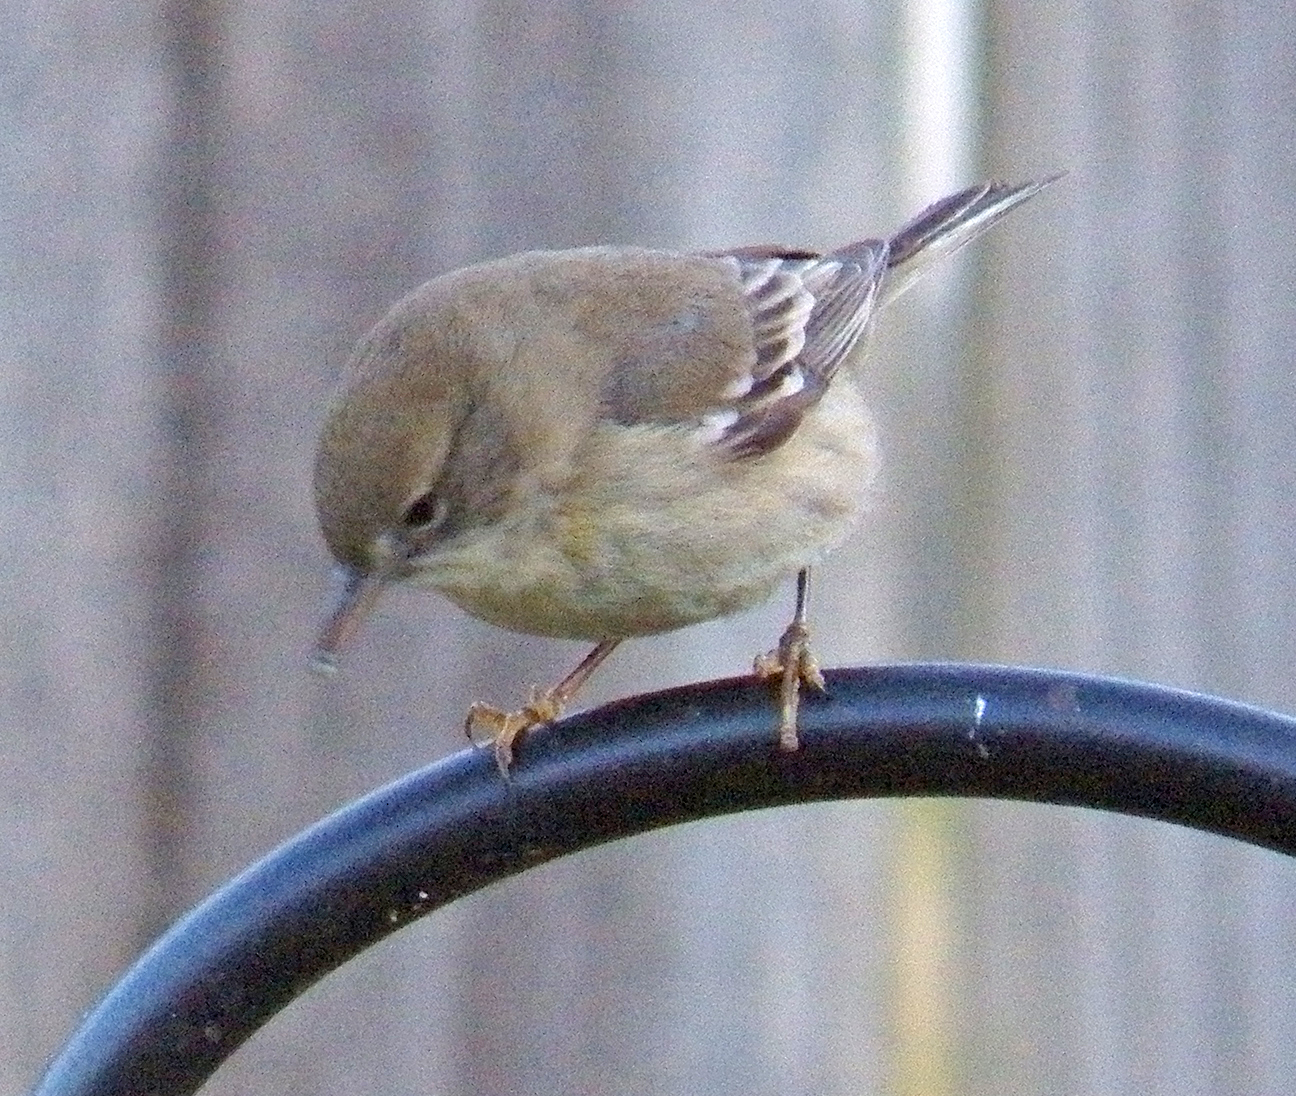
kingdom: Animalia
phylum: Chordata
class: Aves
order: Passeriformes
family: Parulidae
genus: Setophaga
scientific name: Setophaga pinus
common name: Pine warbler
